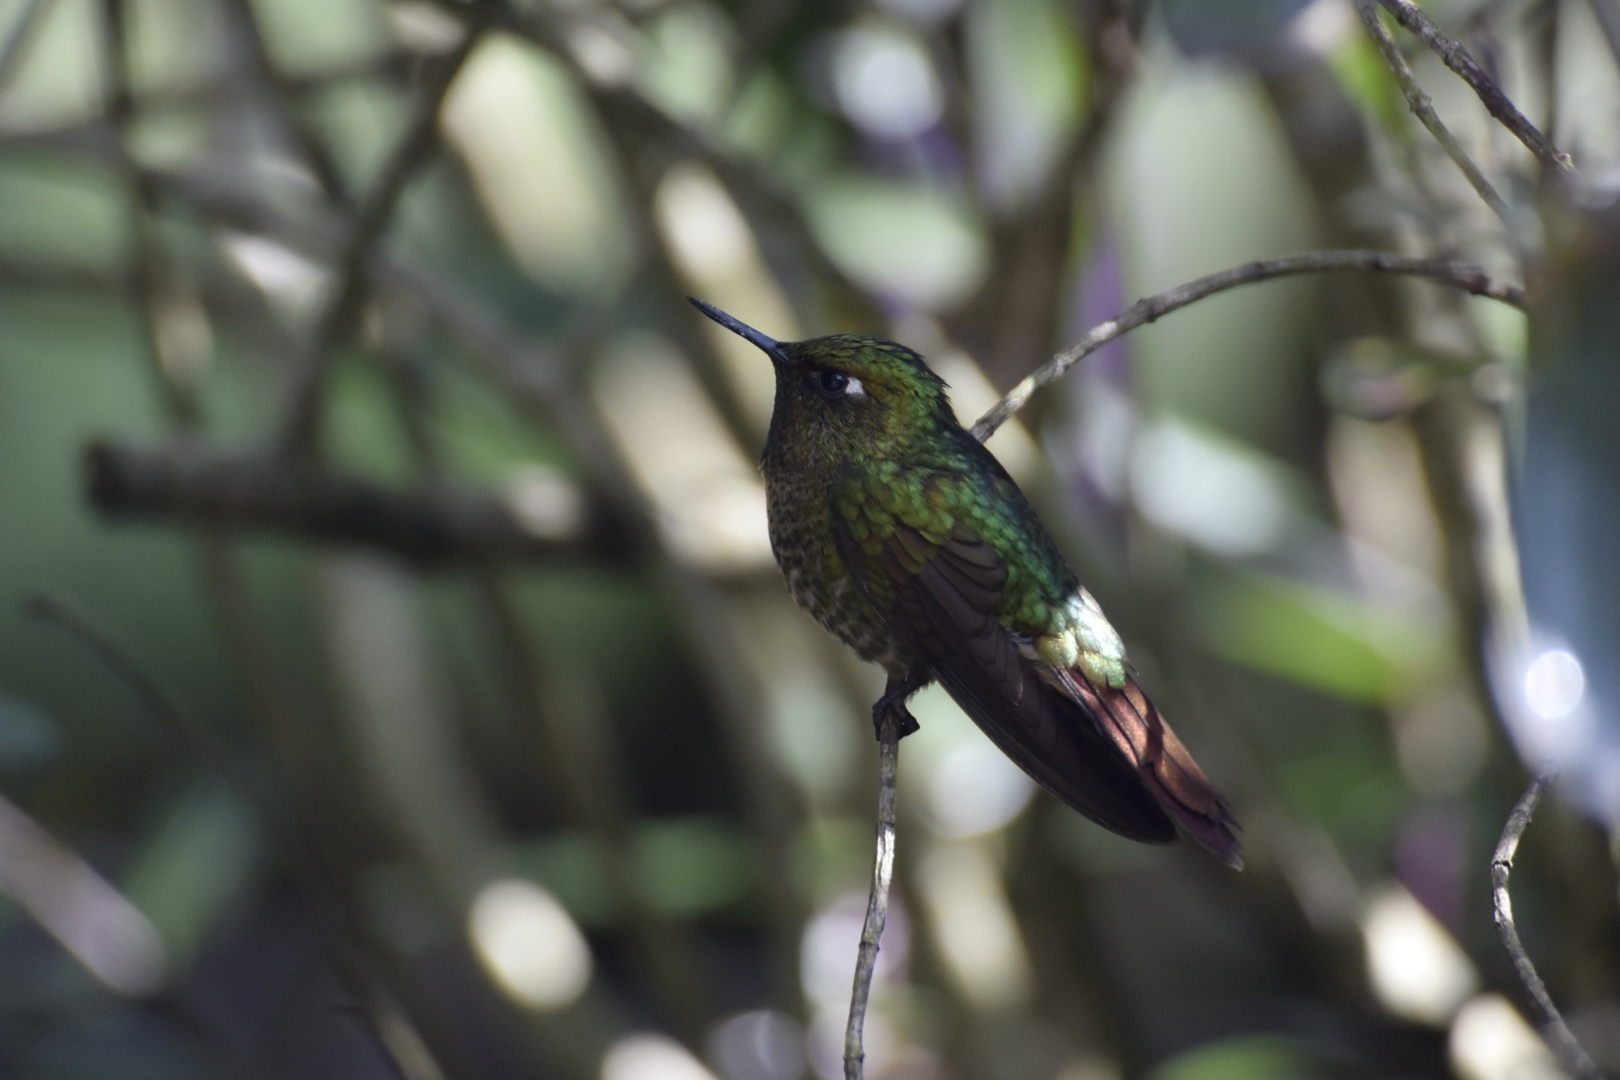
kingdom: Animalia
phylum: Chordata
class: Aves
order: Apodiformes
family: Trochilidae
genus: Metallura
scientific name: Metallura tyrianthina
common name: Tyrian metaltail
